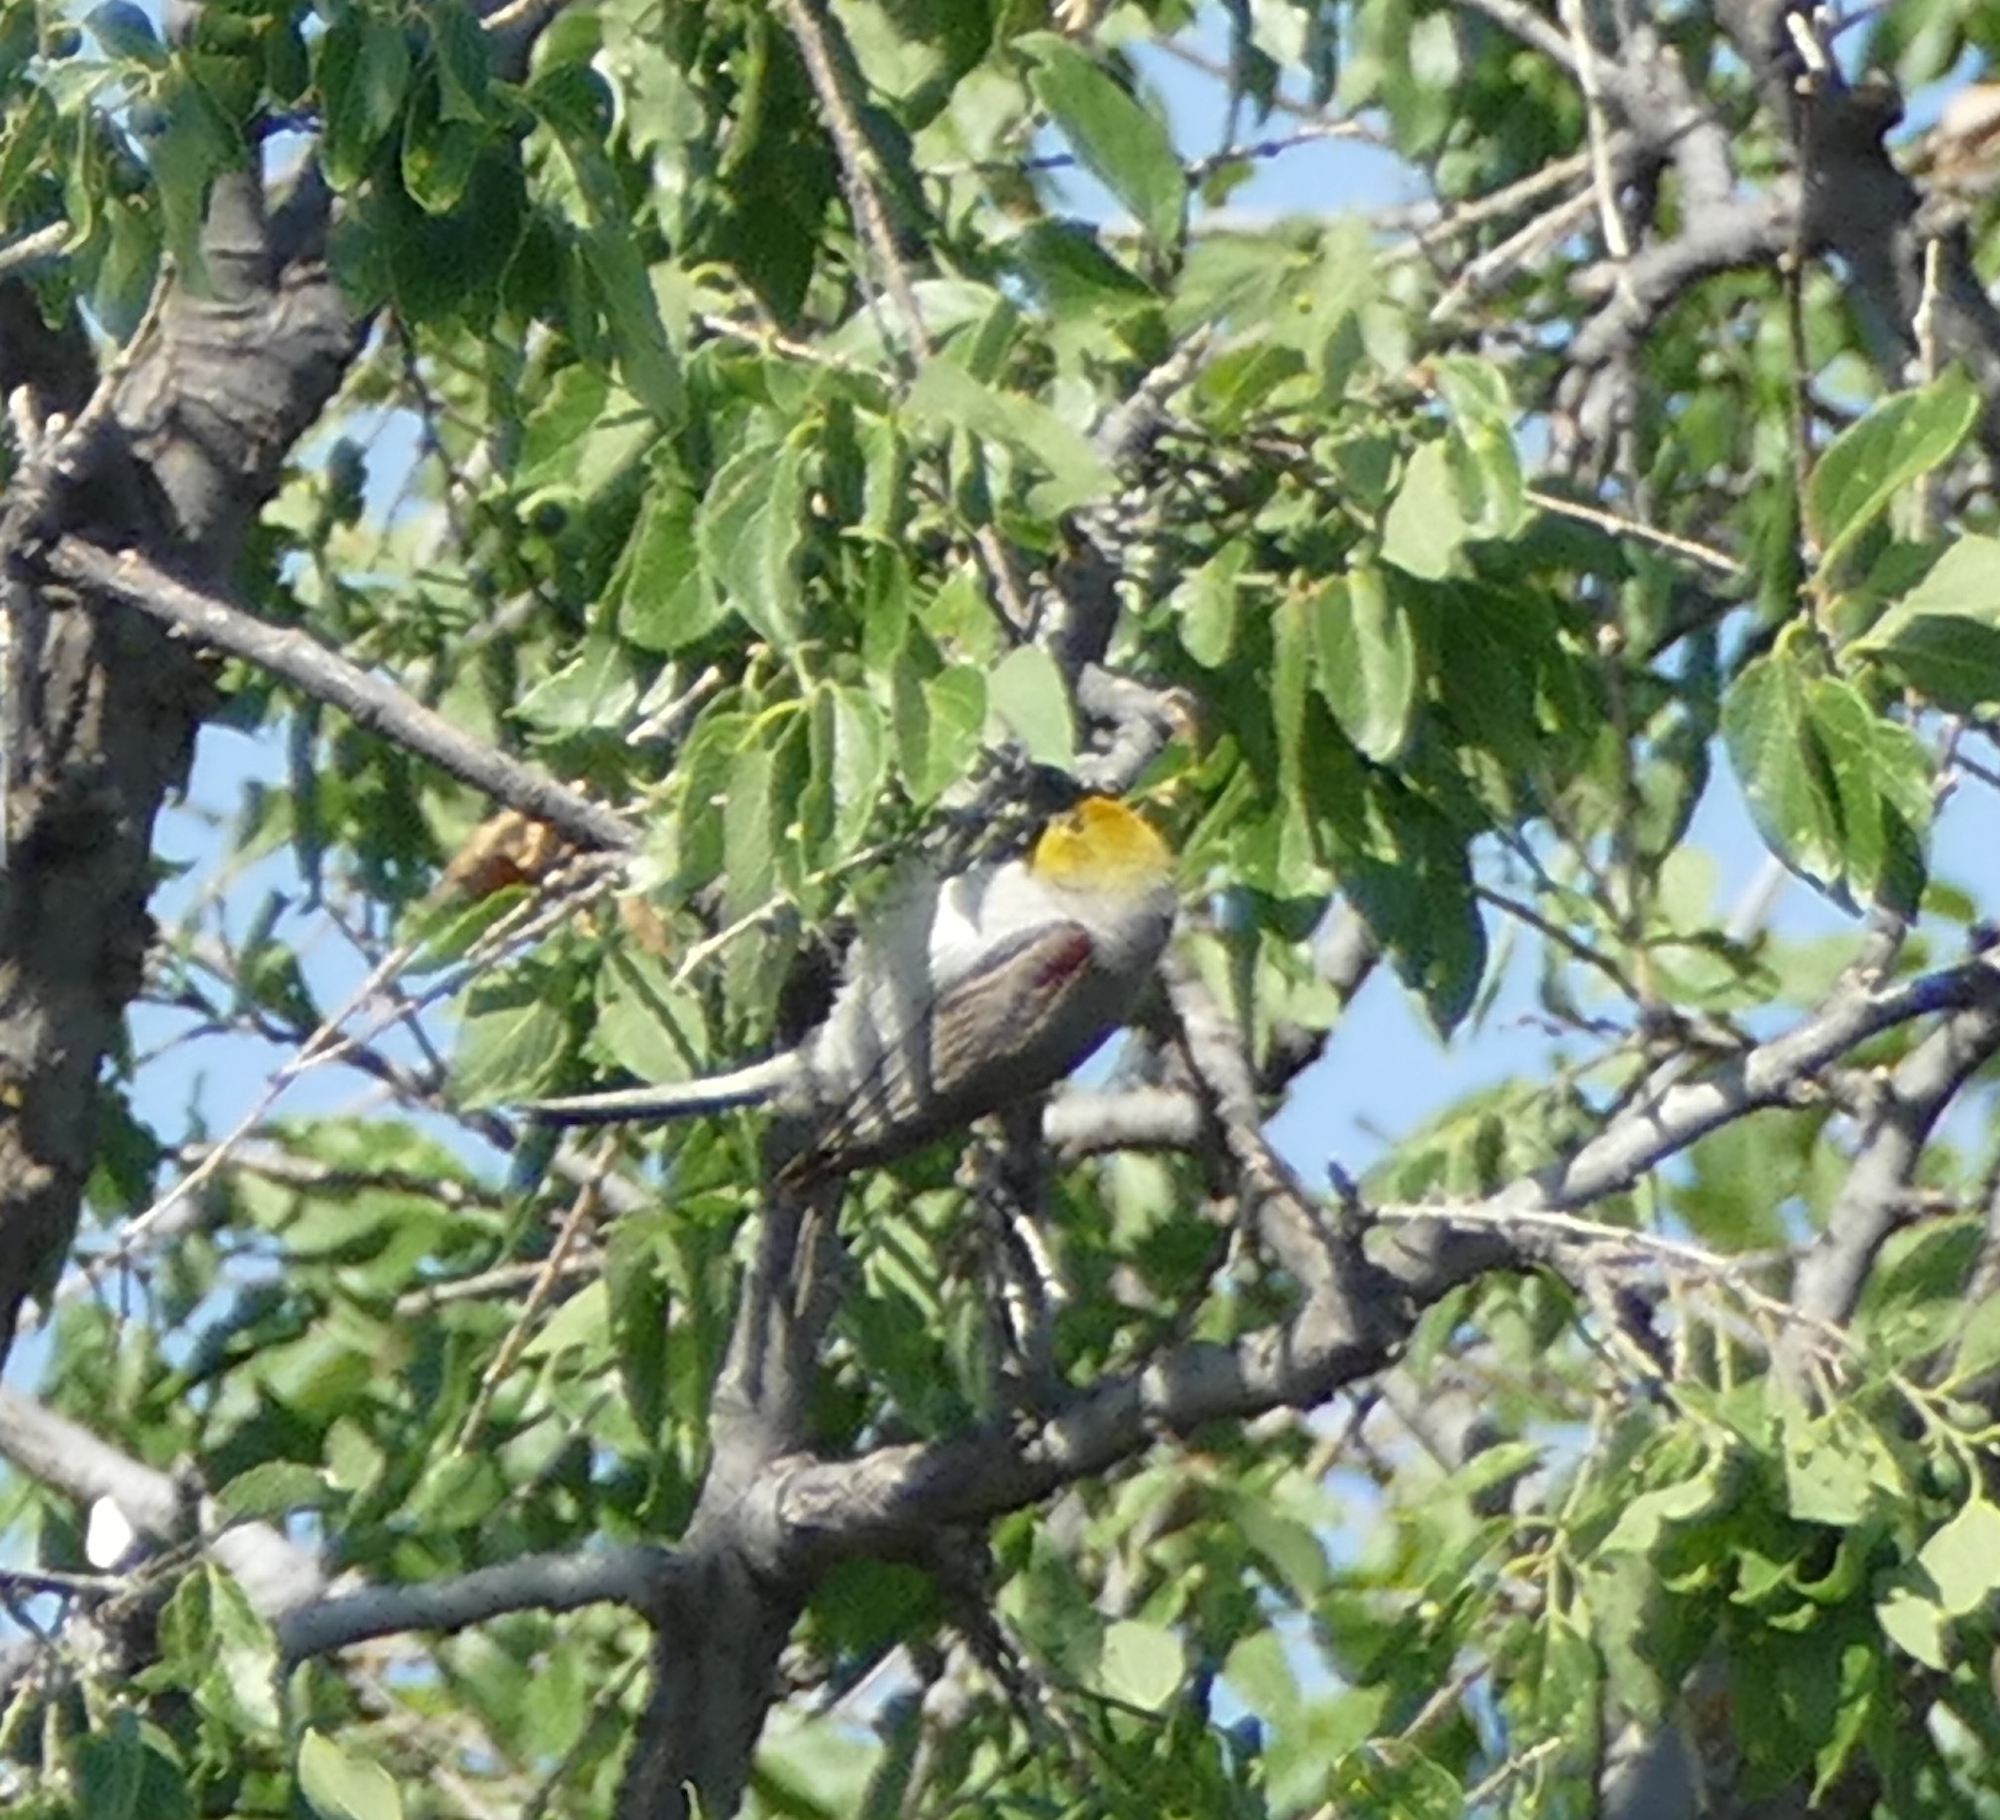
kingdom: Animalia
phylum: Chordata
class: Aves
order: Passeriformes
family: Remizidae
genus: Auriparus
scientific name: Auriparus flaviceps
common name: Verdin
